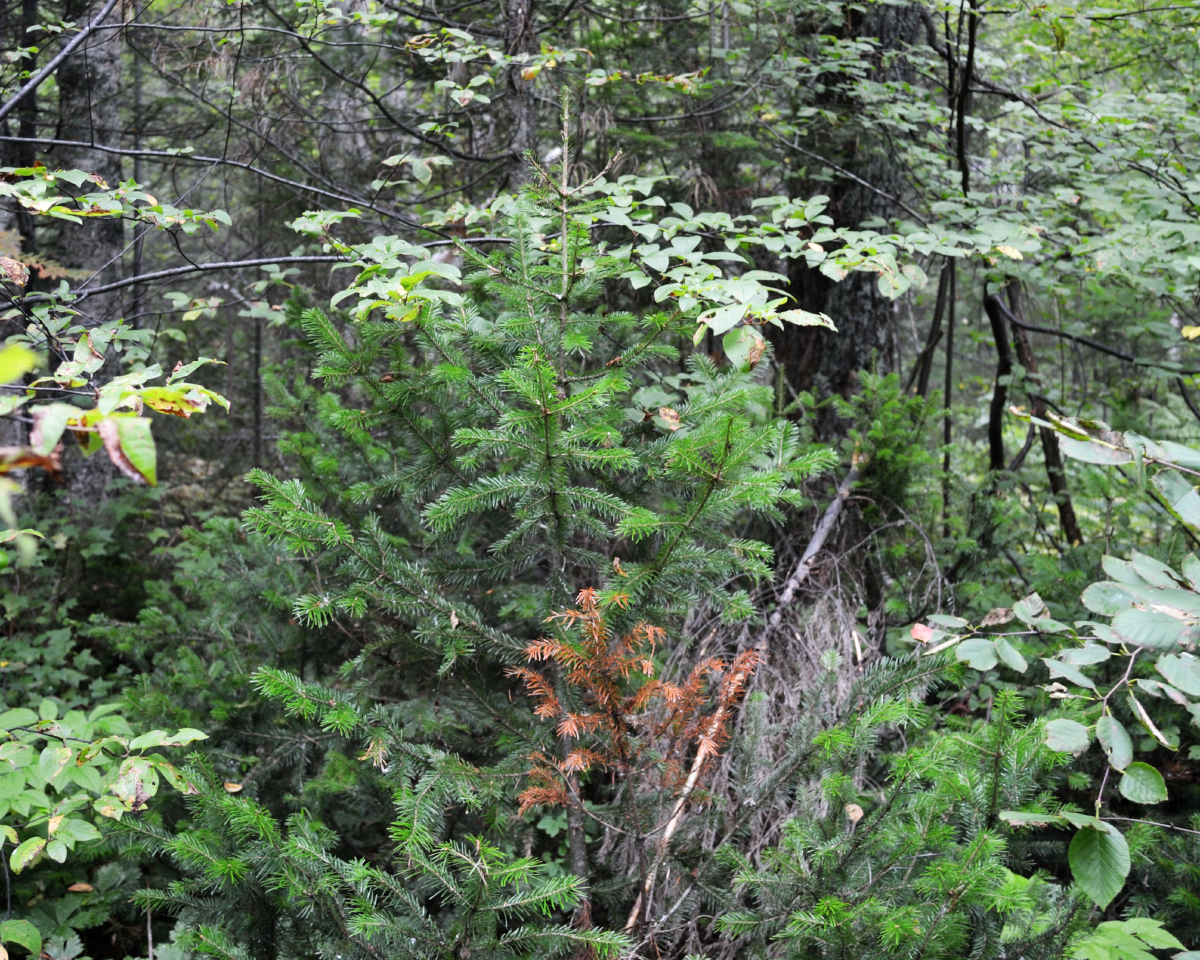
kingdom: Plantae
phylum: Tracheophyta
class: Pinopsida
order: Pinales
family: Pinaceae
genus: Abies
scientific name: Abies sibirica
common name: Siberian fir
